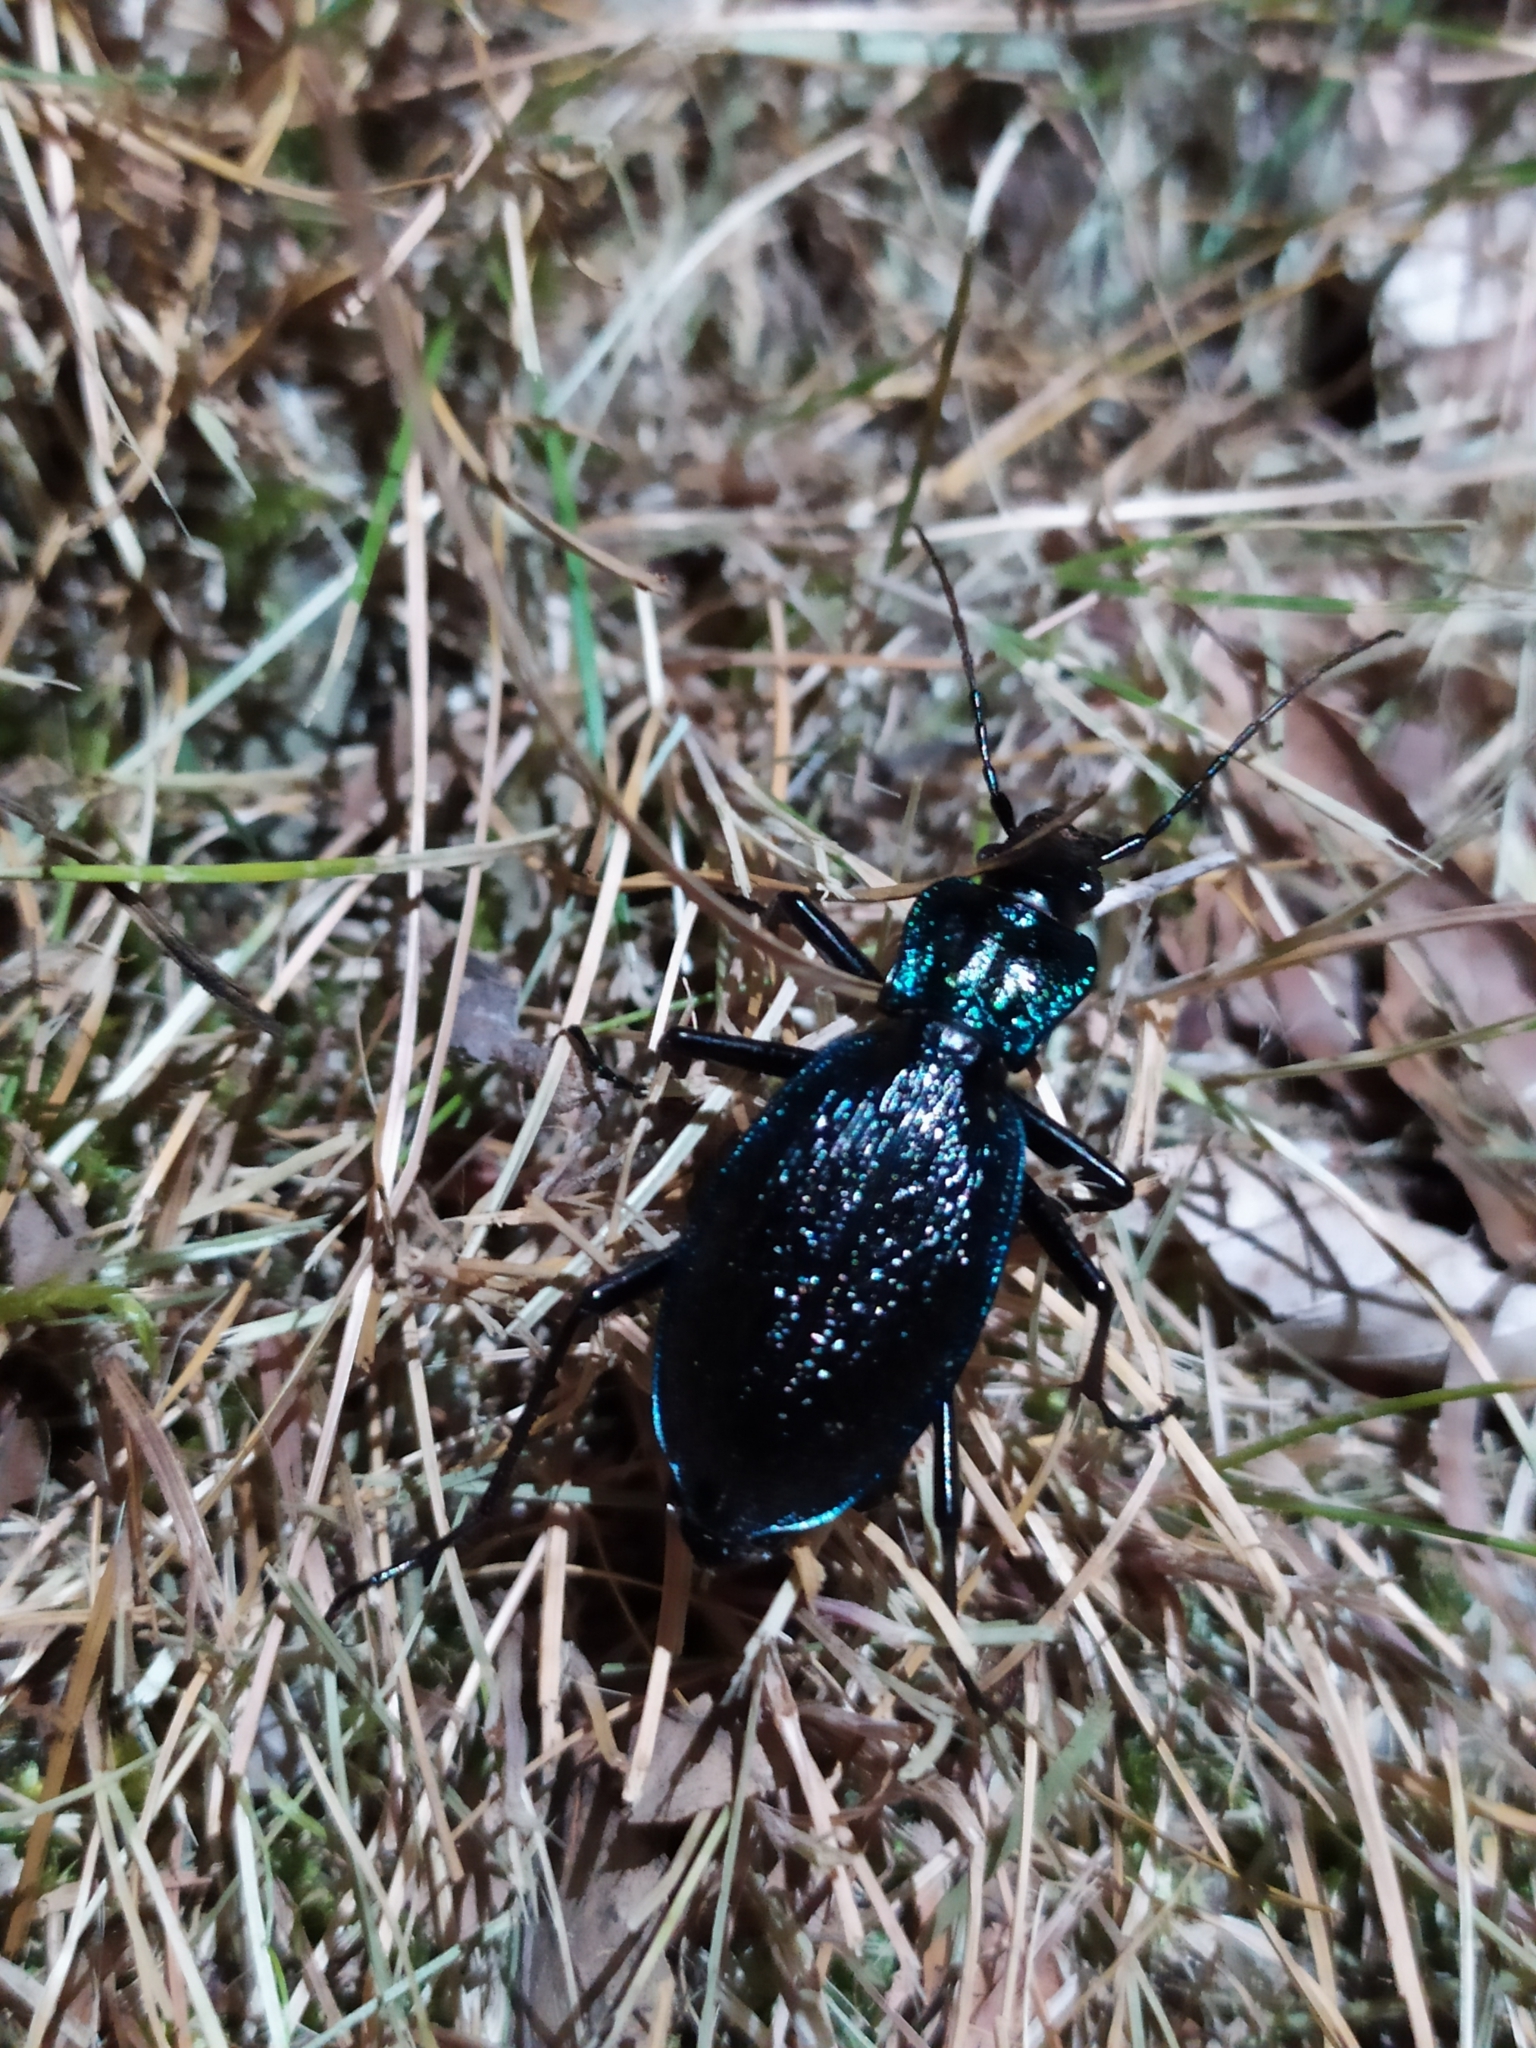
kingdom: Animalia
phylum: Arthropoda
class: Insecta
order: Coleoptera
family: Carabidae
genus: Carabus
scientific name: Carabus intricatus
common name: Blue ground beetle
